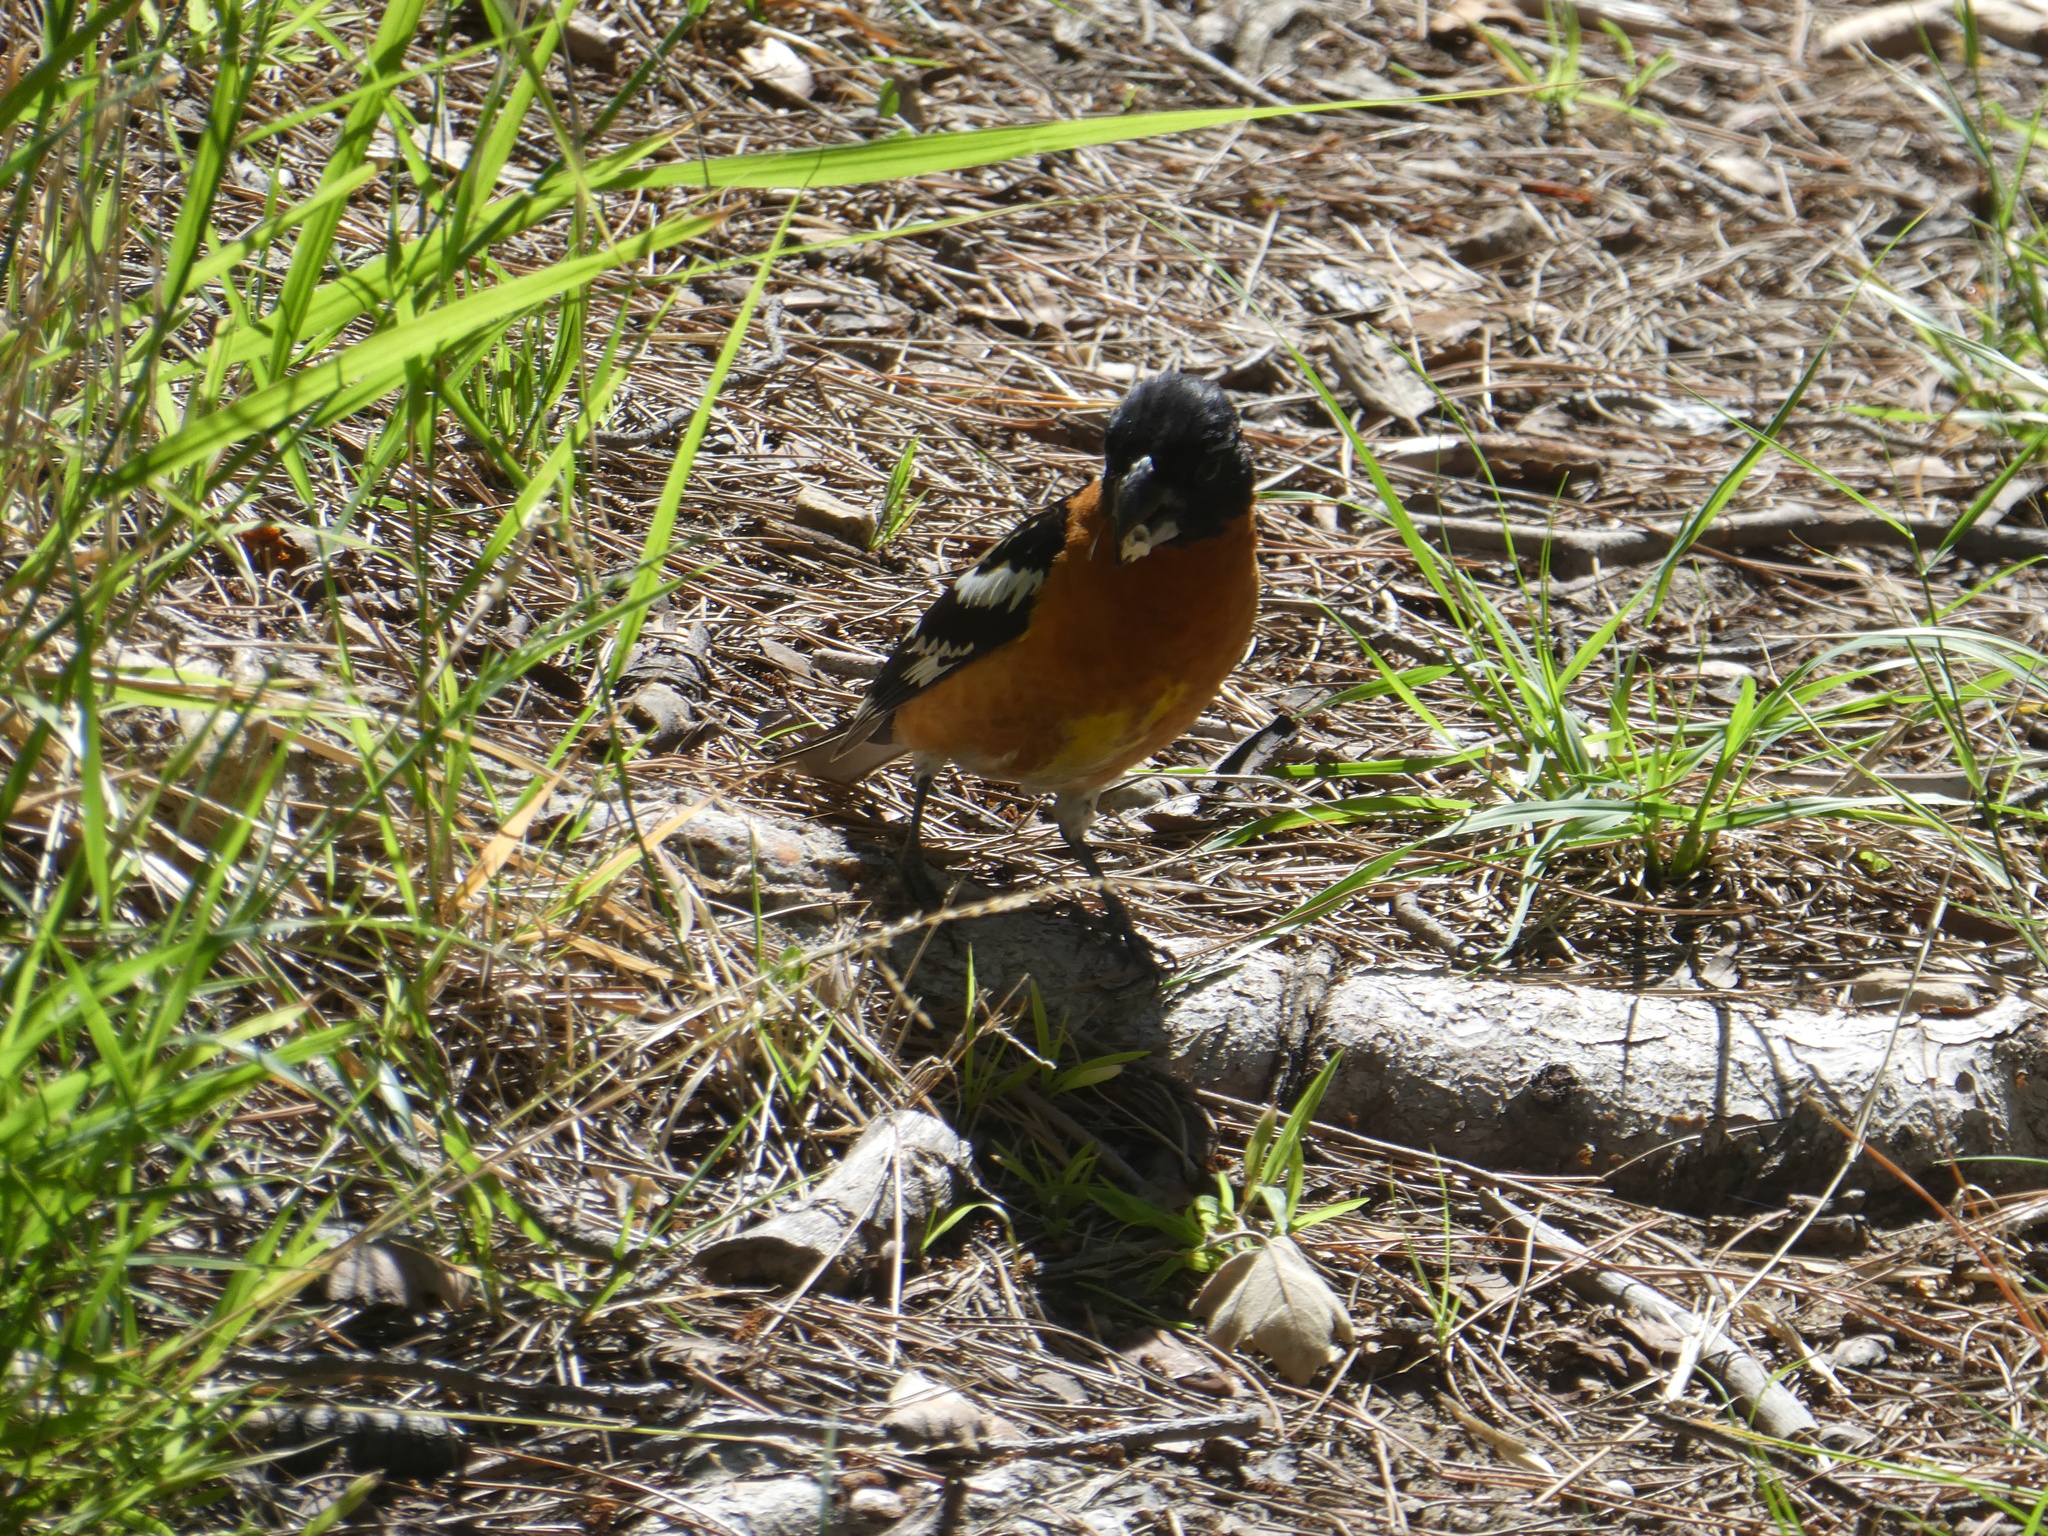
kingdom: Animalia
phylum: Chordata
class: Aves
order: Passeriformes
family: Cardinalidae
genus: Pheucticus
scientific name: Pheucticus melanocephalus
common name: Black-headed grosbeak
